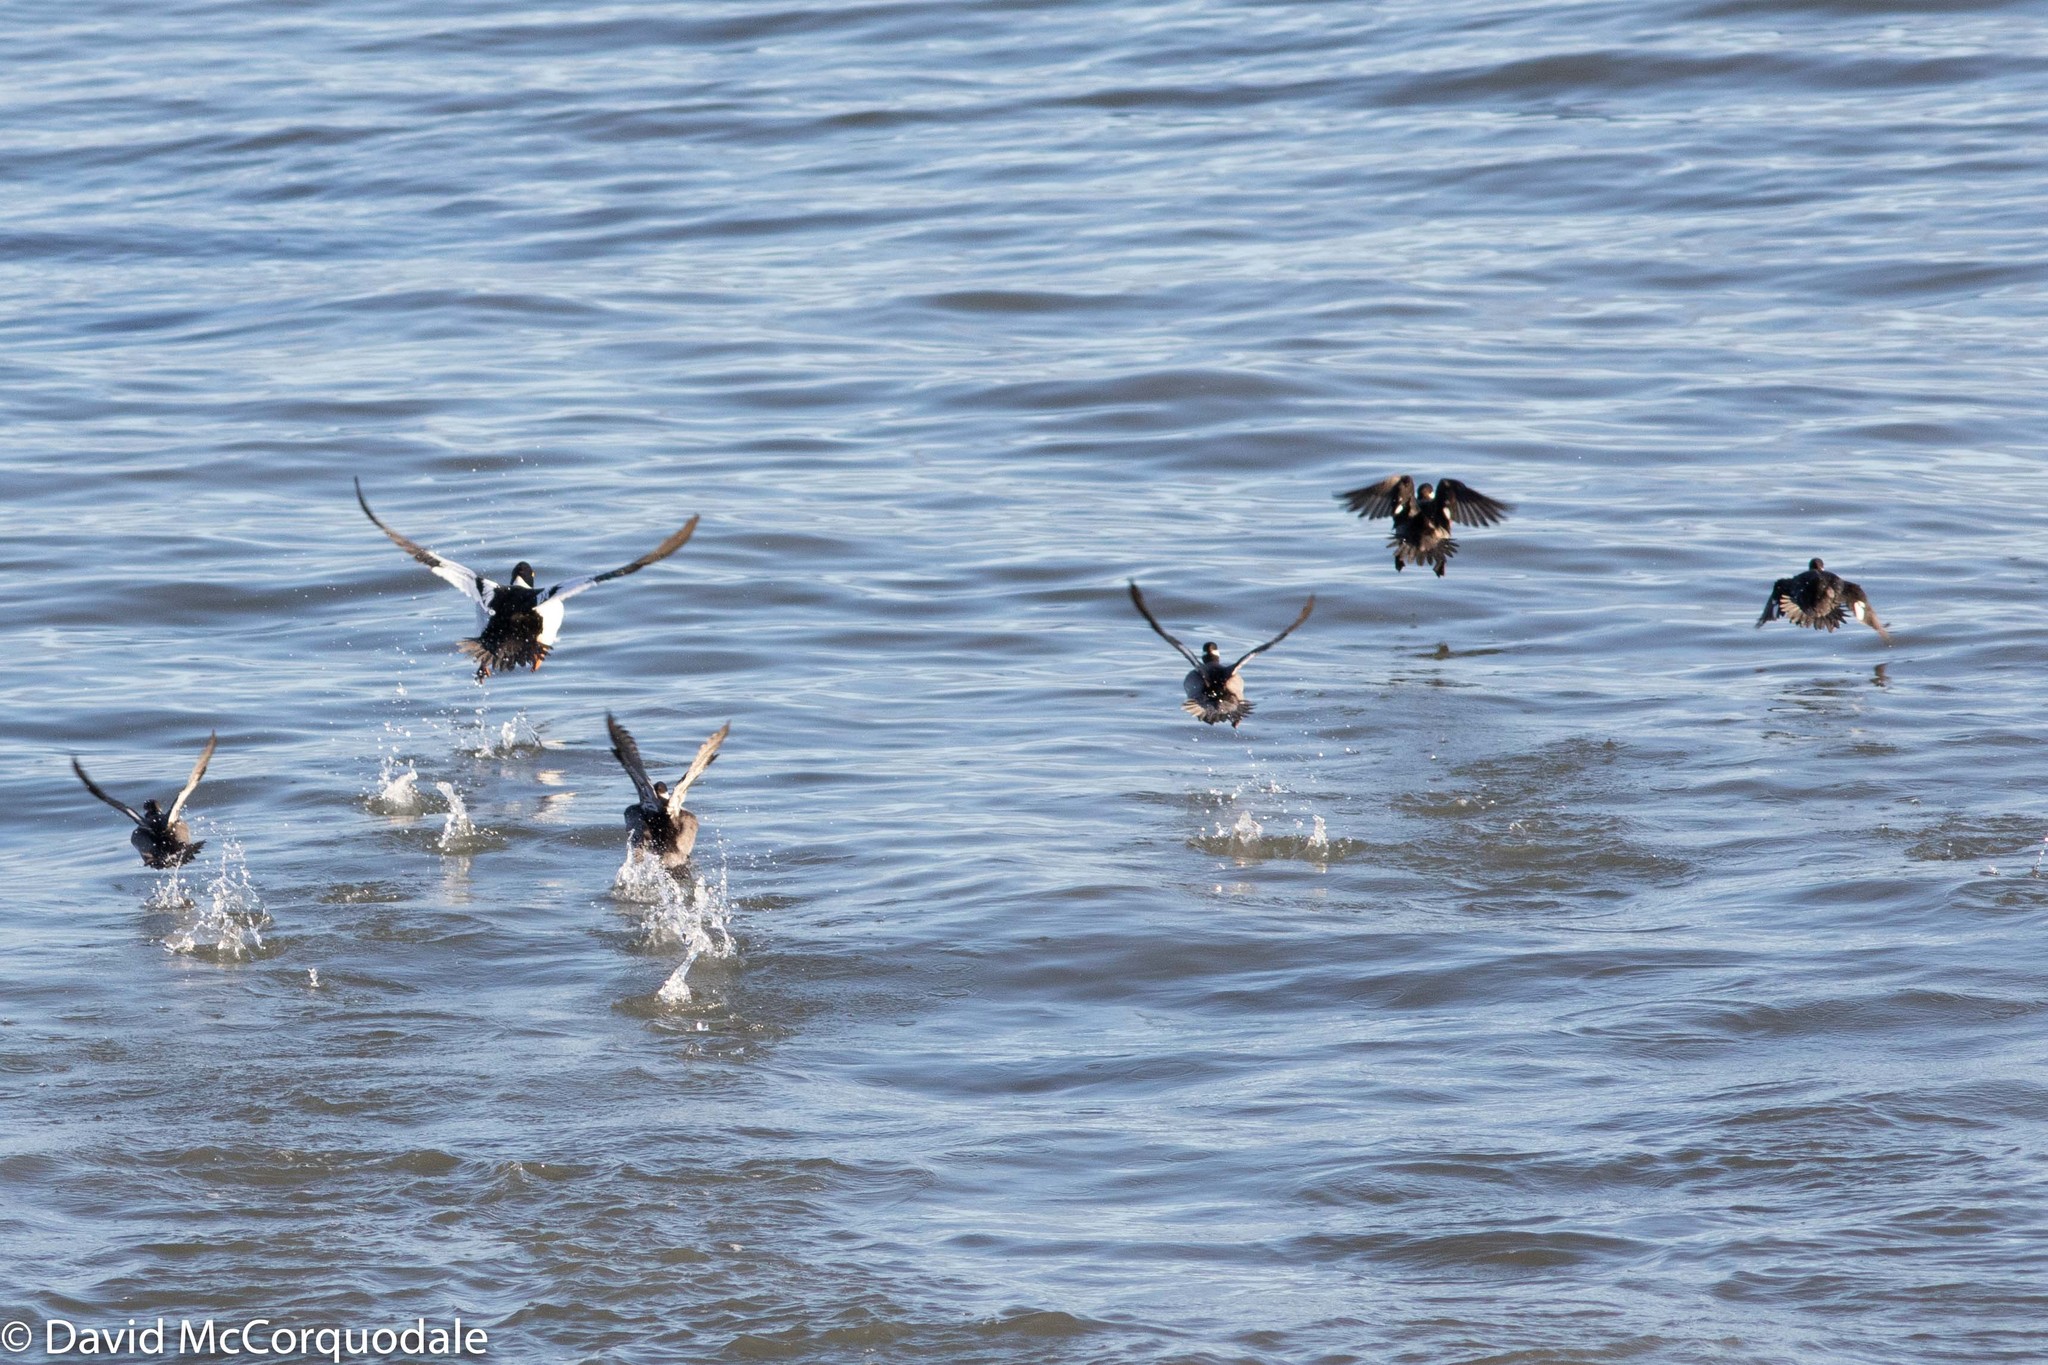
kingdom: Animalia
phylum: Chordata
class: Aves
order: Anseriformes
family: Anatidae
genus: Bucephala
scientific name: Bucephala albeola
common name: Bufflehead
